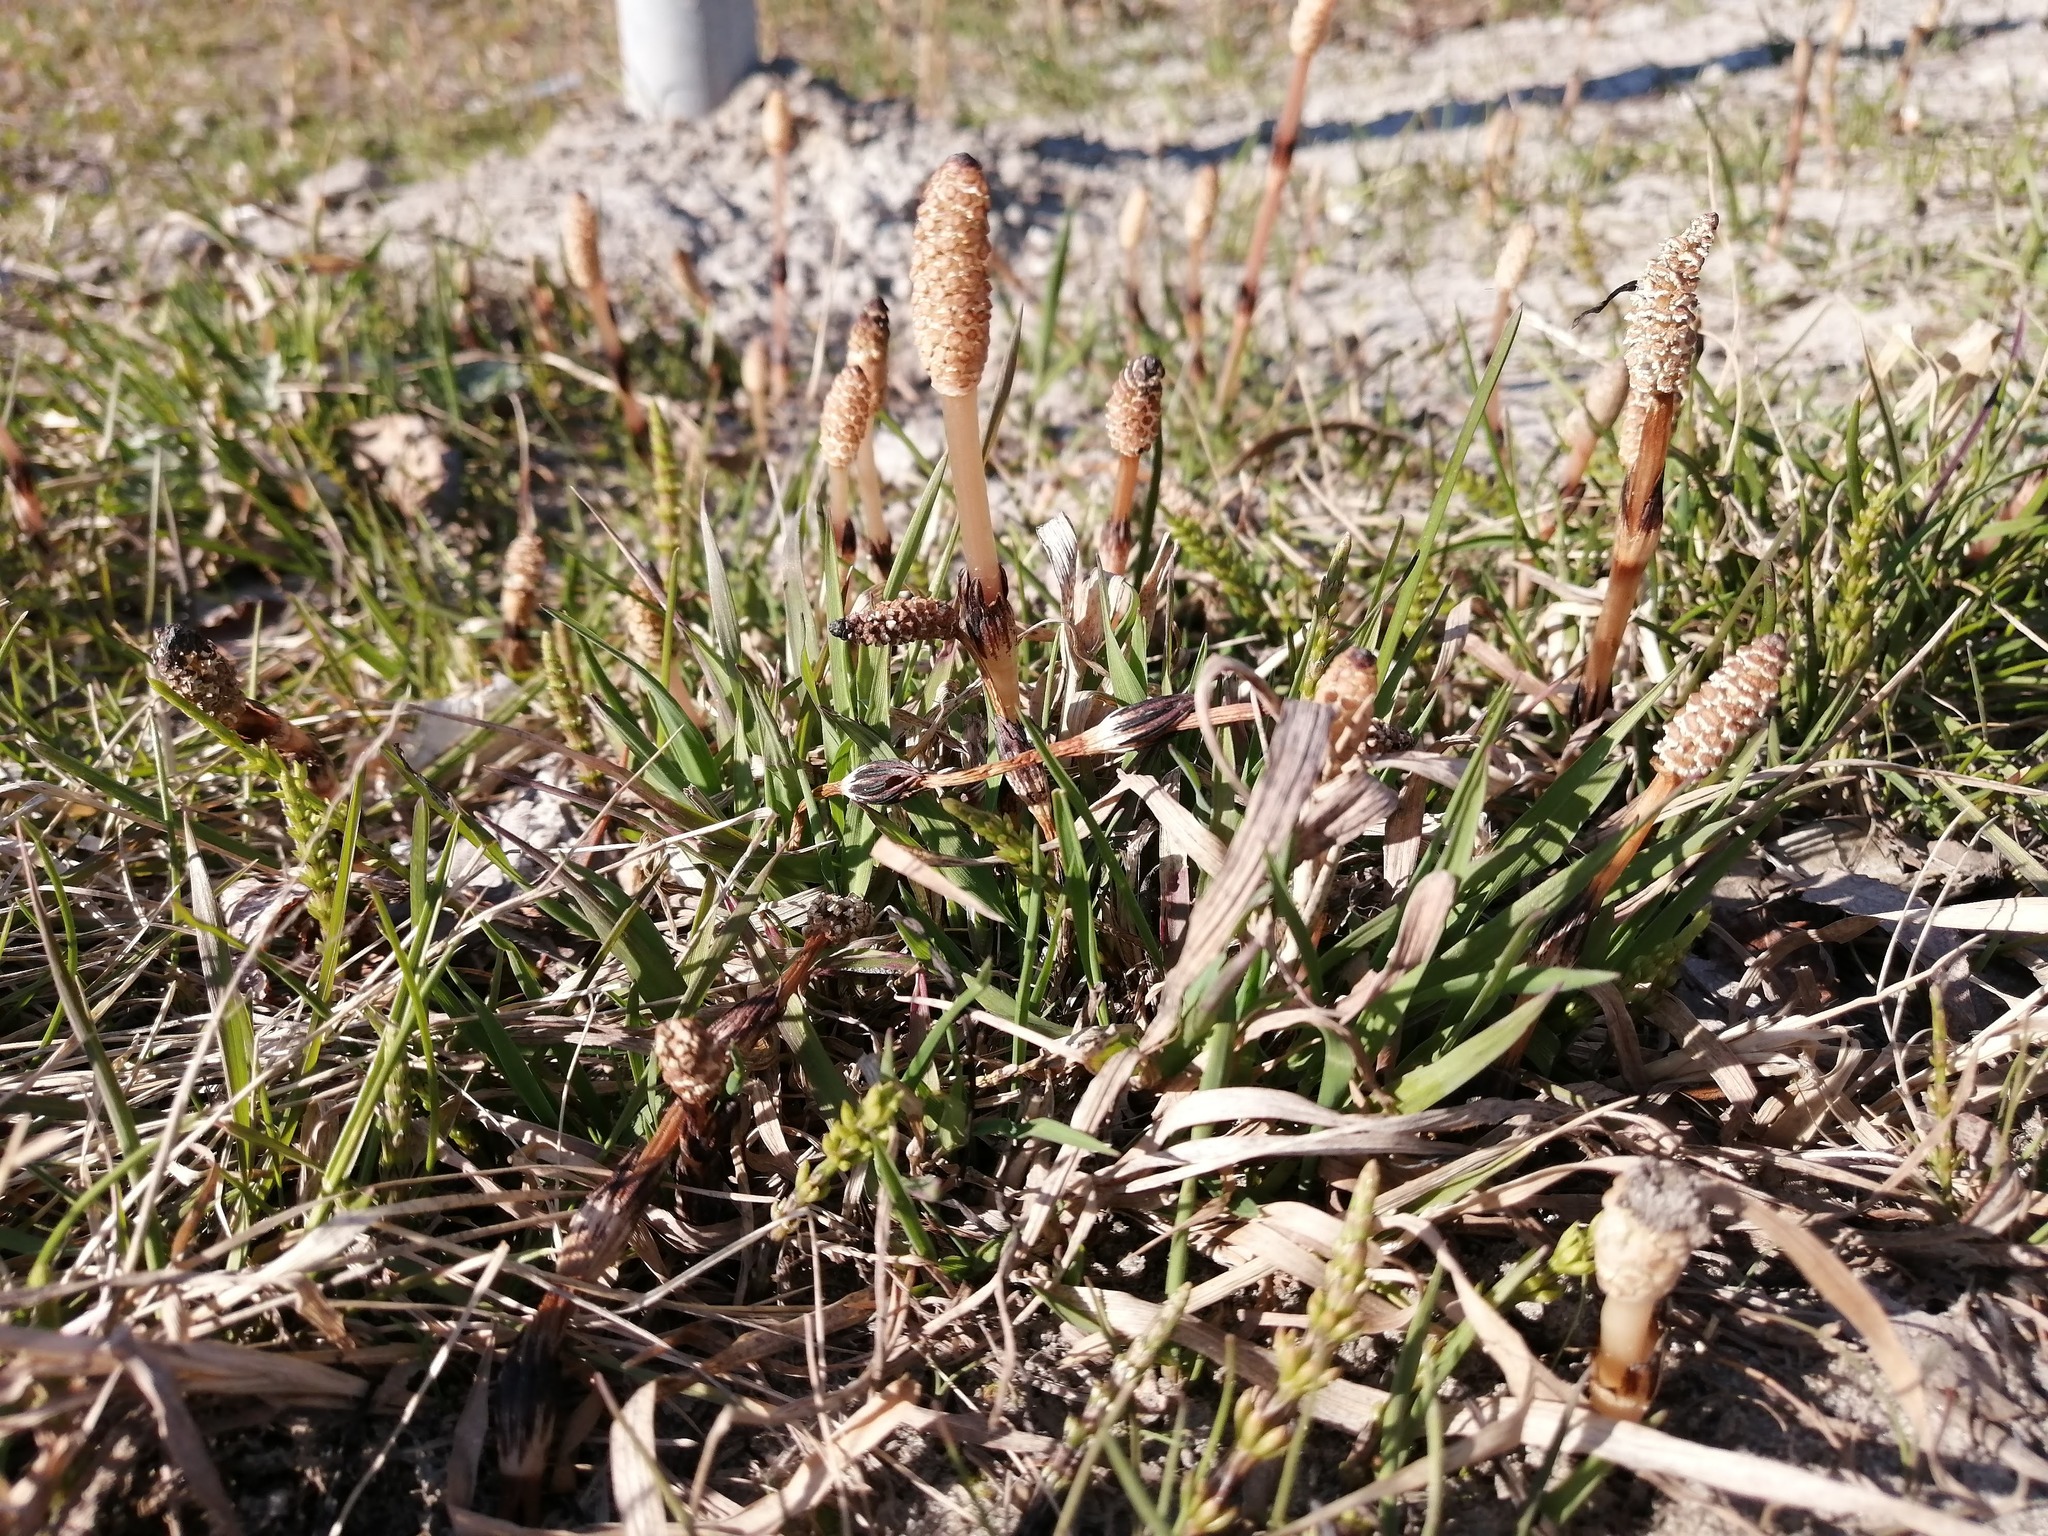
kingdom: Plantae
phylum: Tracheophyta
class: Polypodiopsida
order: Equisetales
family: Equisetaceae
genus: Equisetum
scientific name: Equisetum arvense
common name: Field horsetail
